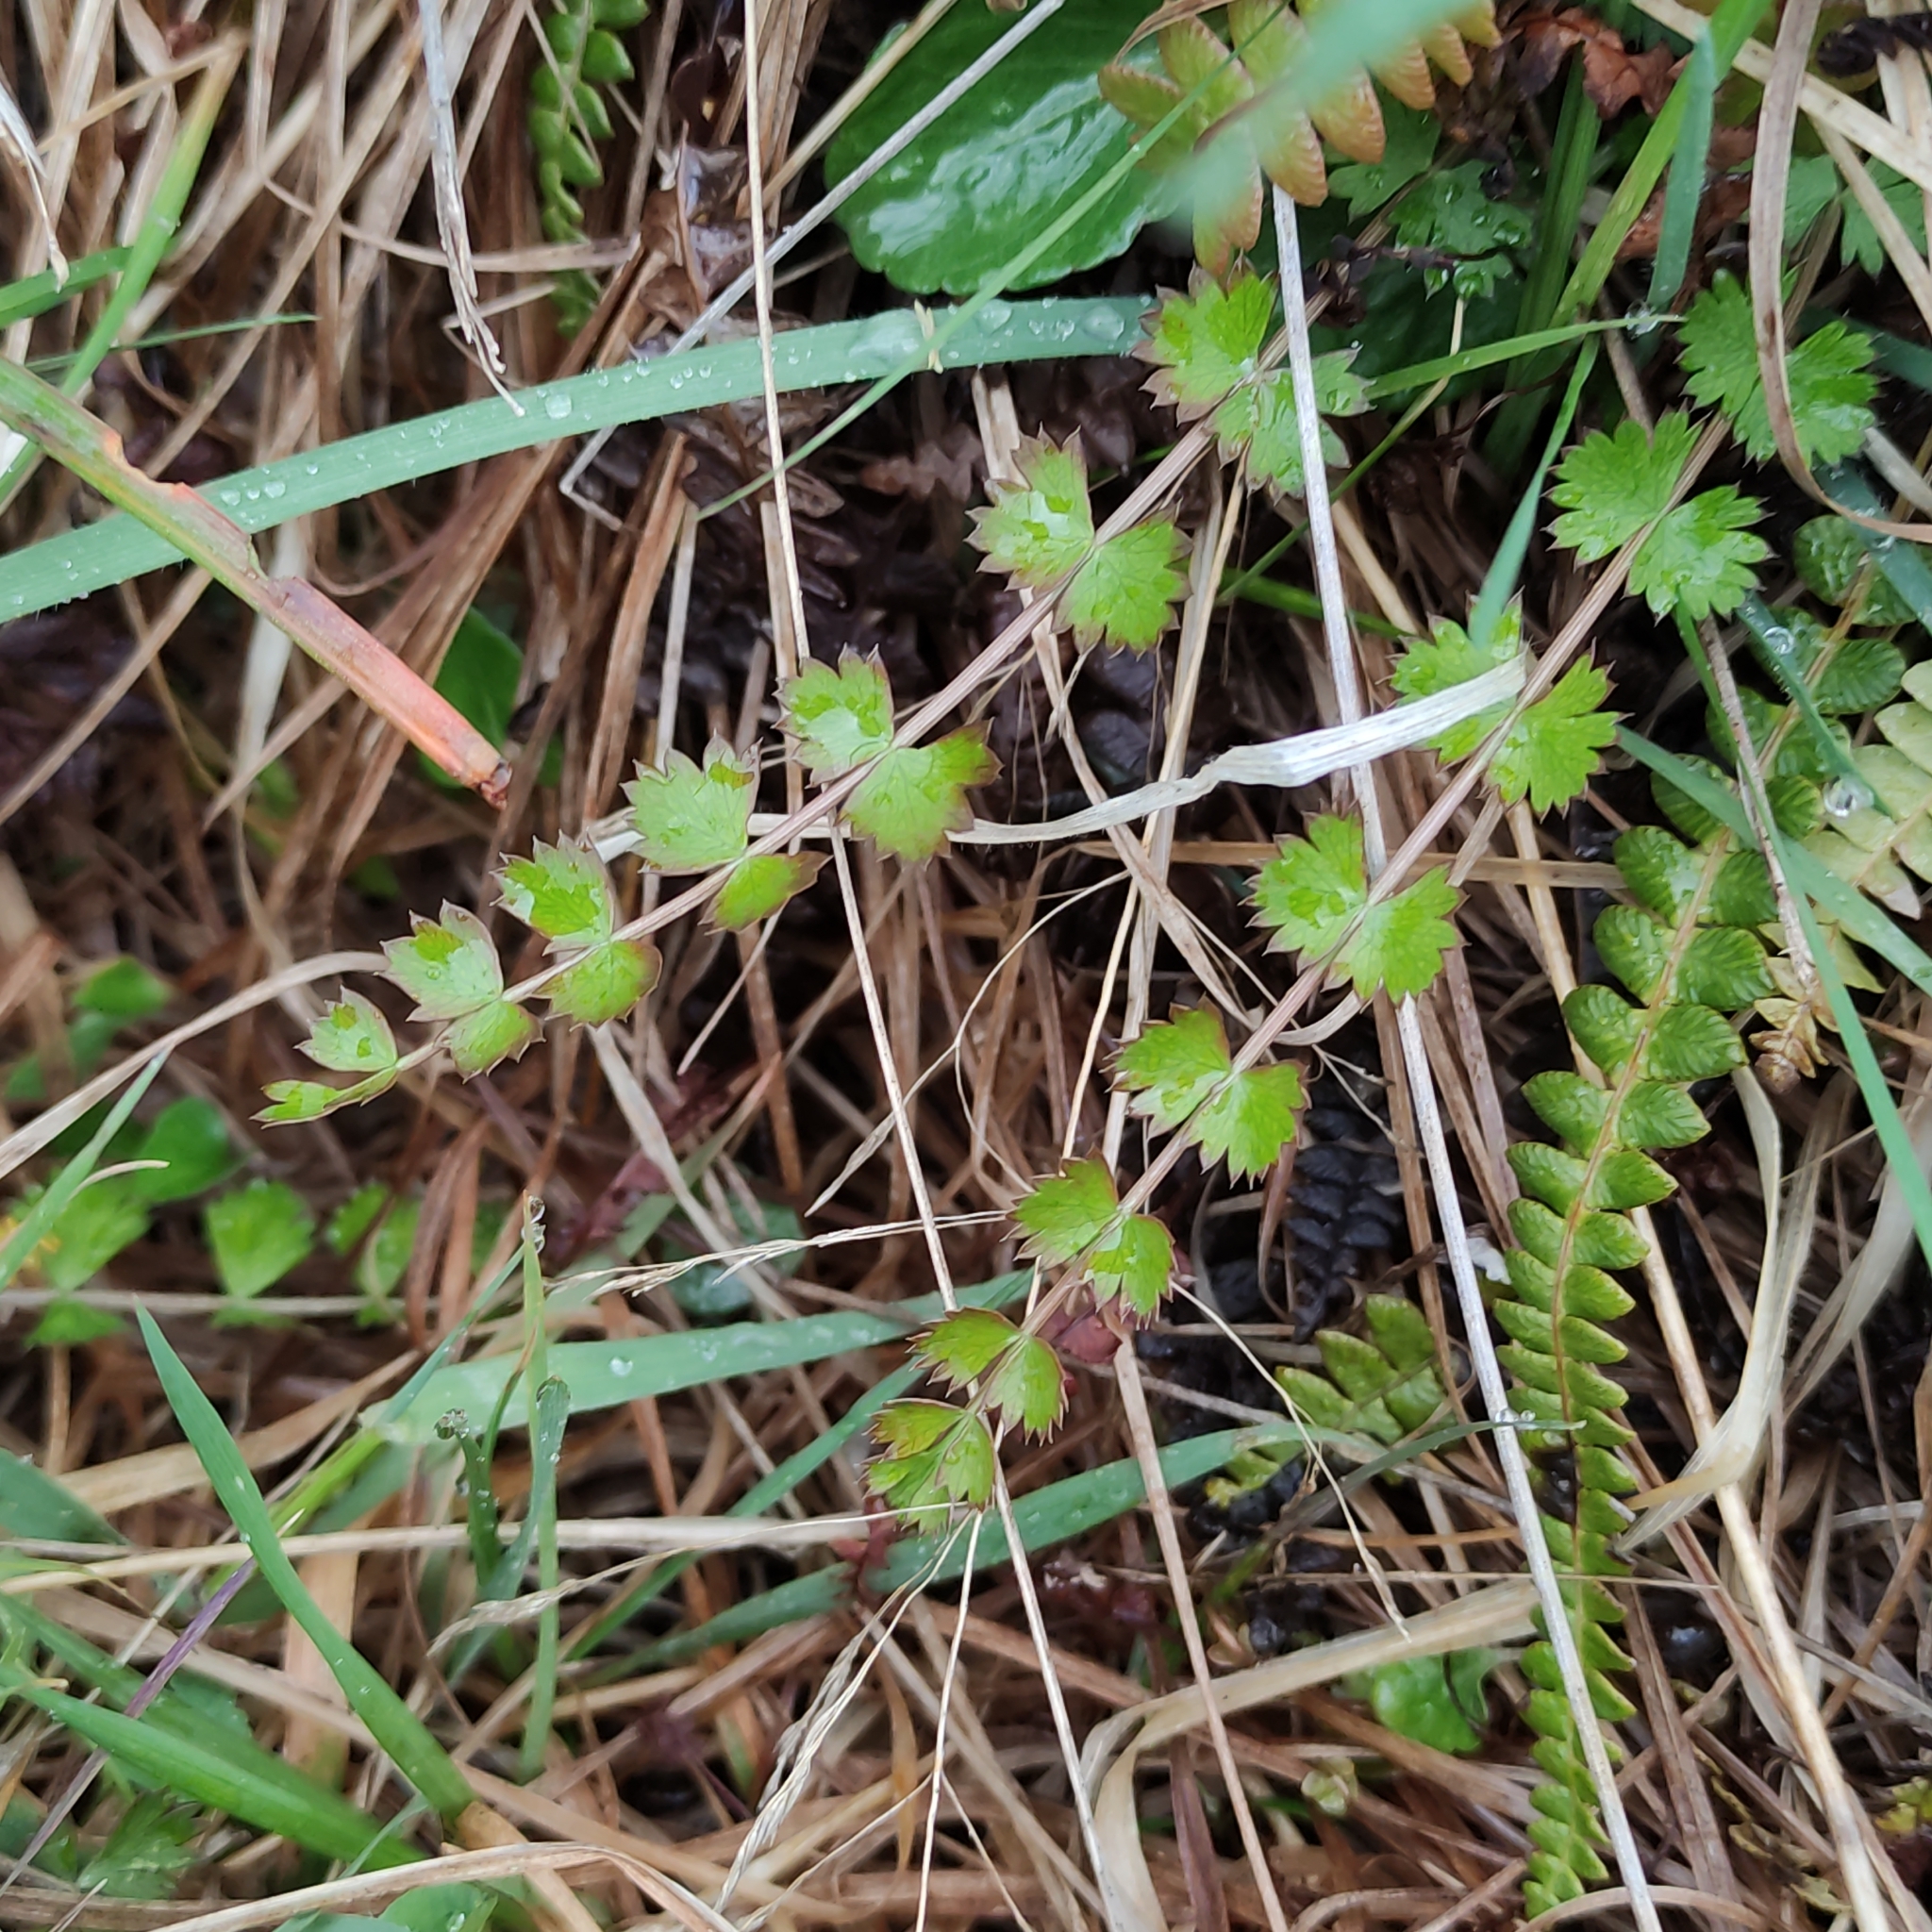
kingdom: Plantae
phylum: Tracheophyta
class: Magnoliopsida
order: Apiales
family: Apiaceae
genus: Anisotome
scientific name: Anisotome aromatica
